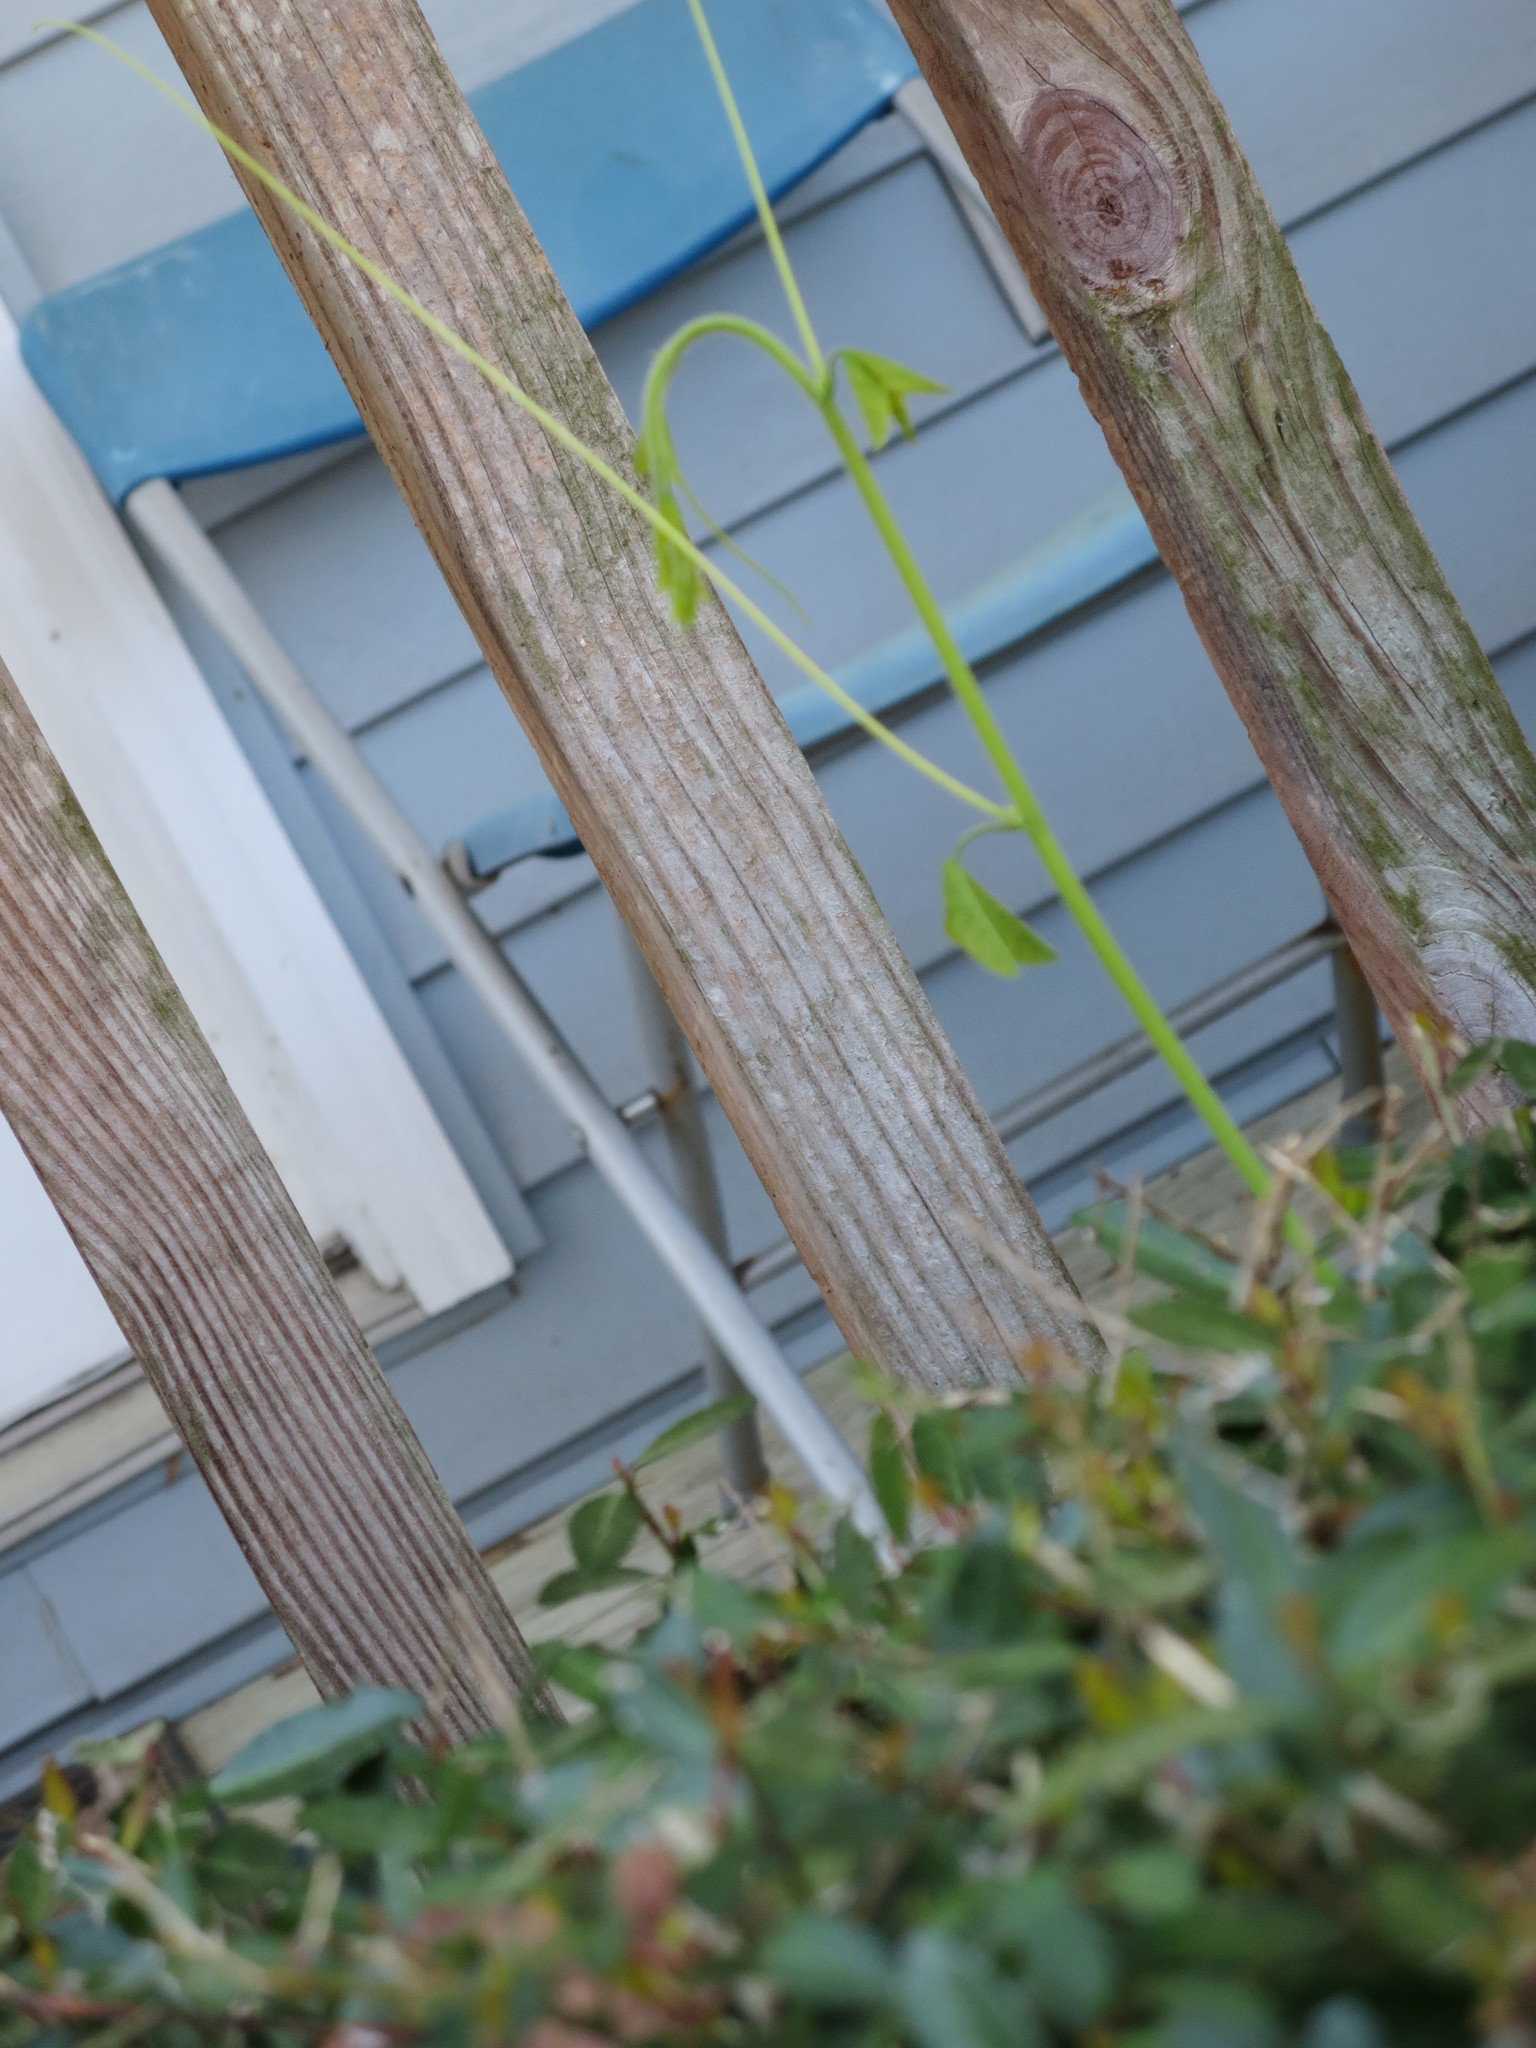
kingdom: Plantae
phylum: Tracheophyta
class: Magnoliopsida
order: Malpighiales
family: Passifloraceae
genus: Passiflora
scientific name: Passiflora lutea
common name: Yellow passionflower
